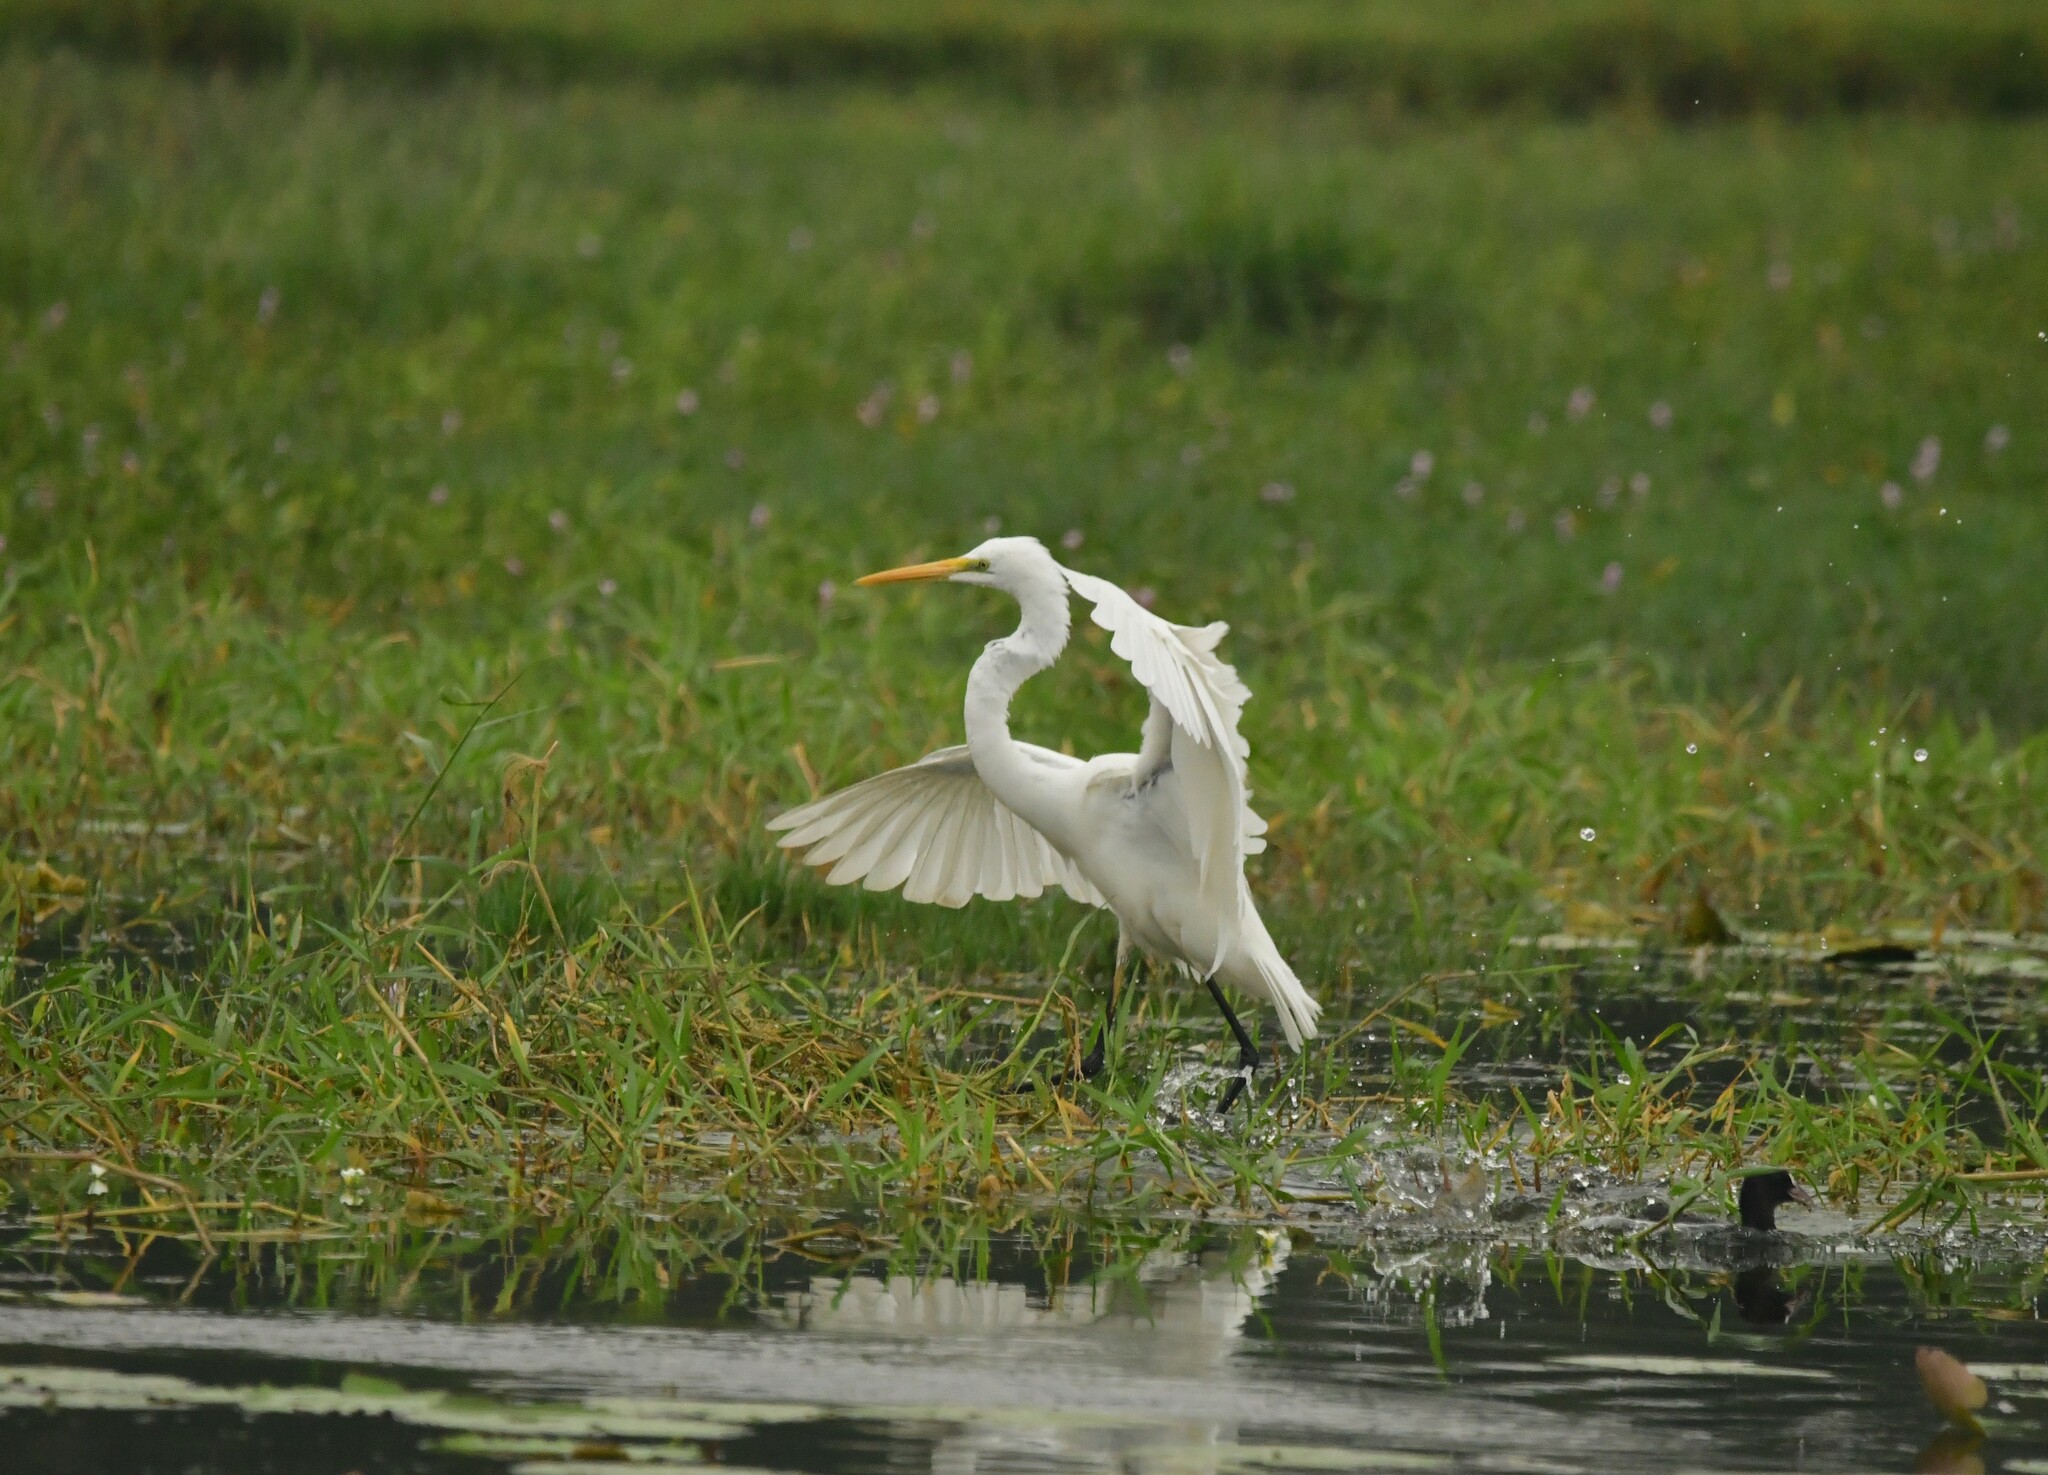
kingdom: Animalia
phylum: Chordata
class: Aves
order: Pelecaniformes
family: Ardeidae
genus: Ardea
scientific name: Ardea alba
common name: Great egret
